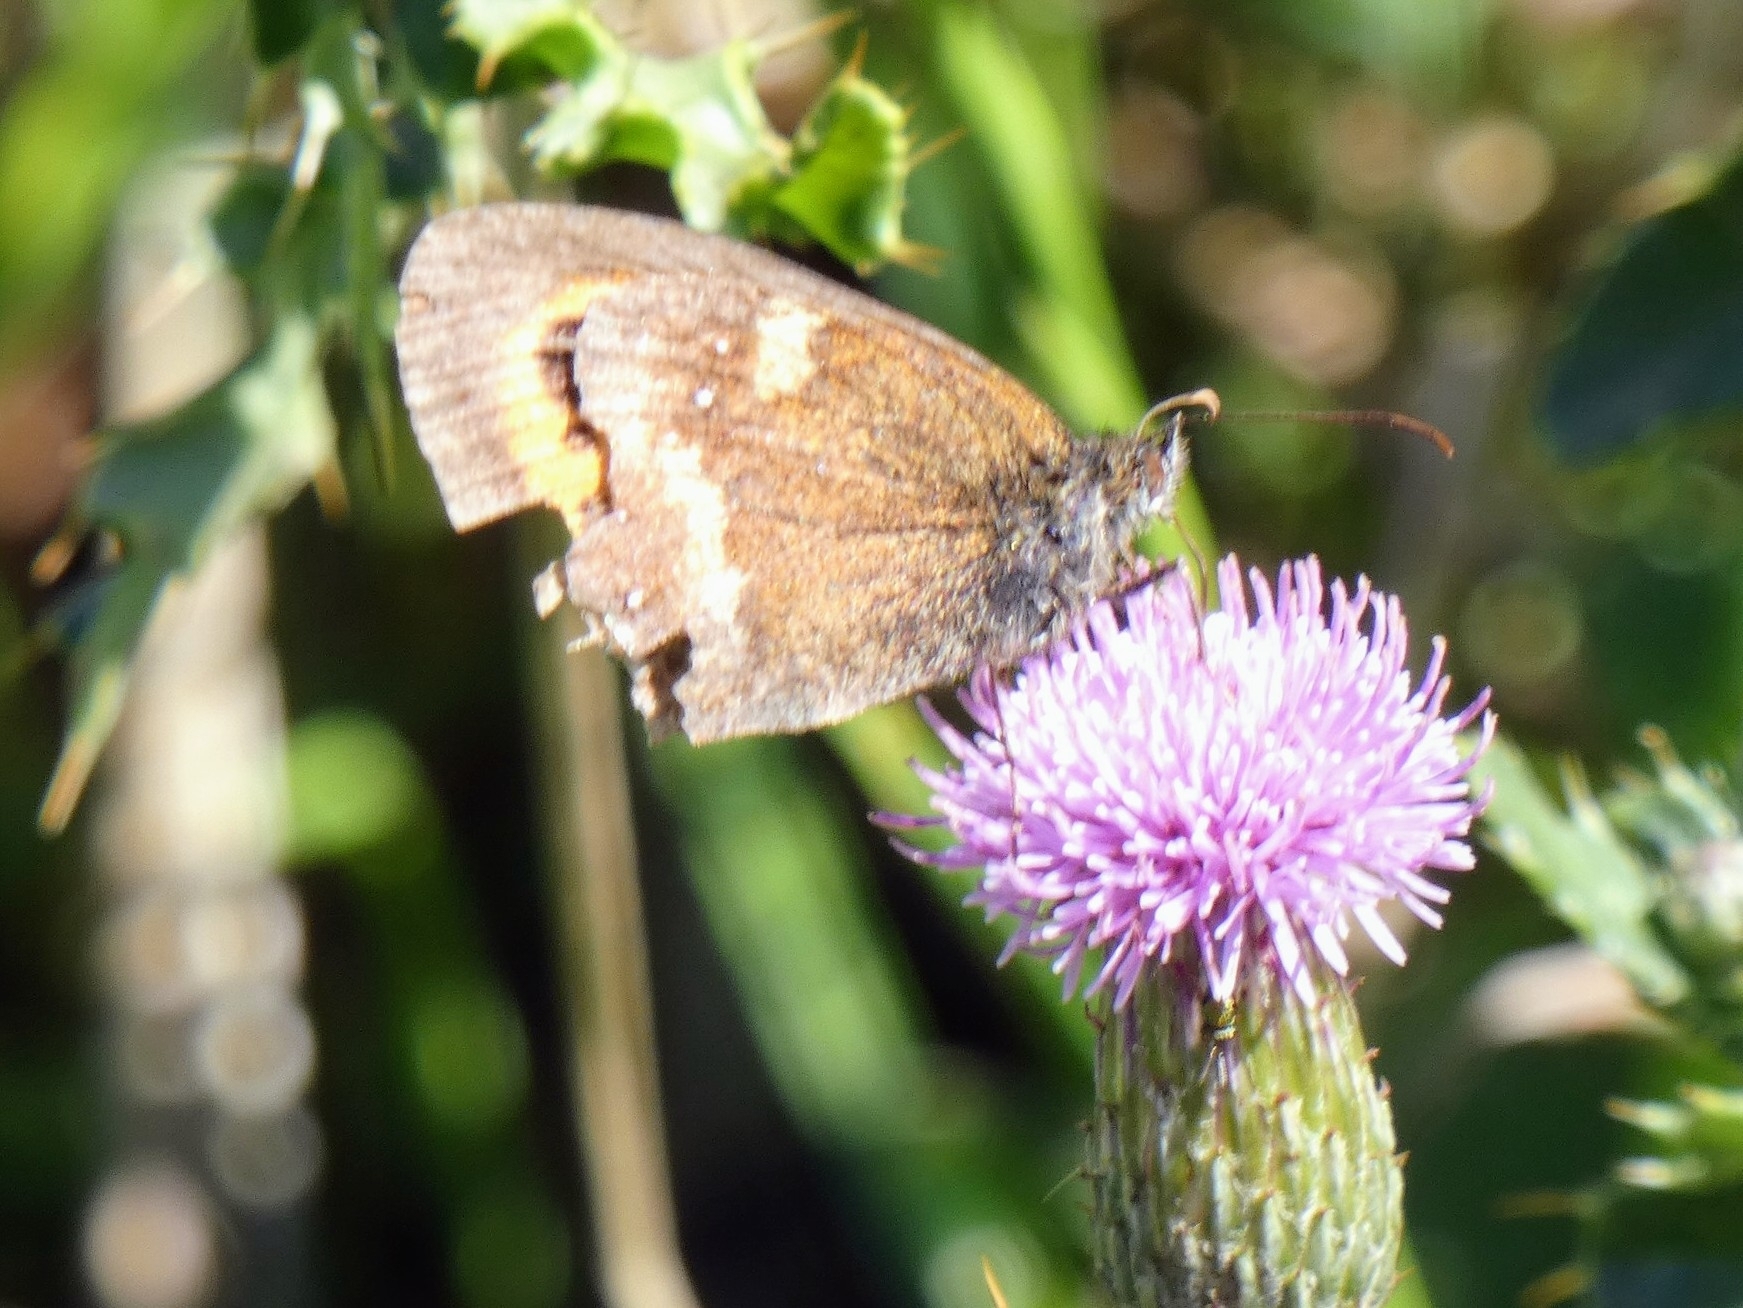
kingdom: Animalia
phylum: Arthropoda
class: Insecta
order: Lepidoptera
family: Nymphalidae
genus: Pyronia
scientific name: Pyronia tithonus
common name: Gatekeeper
